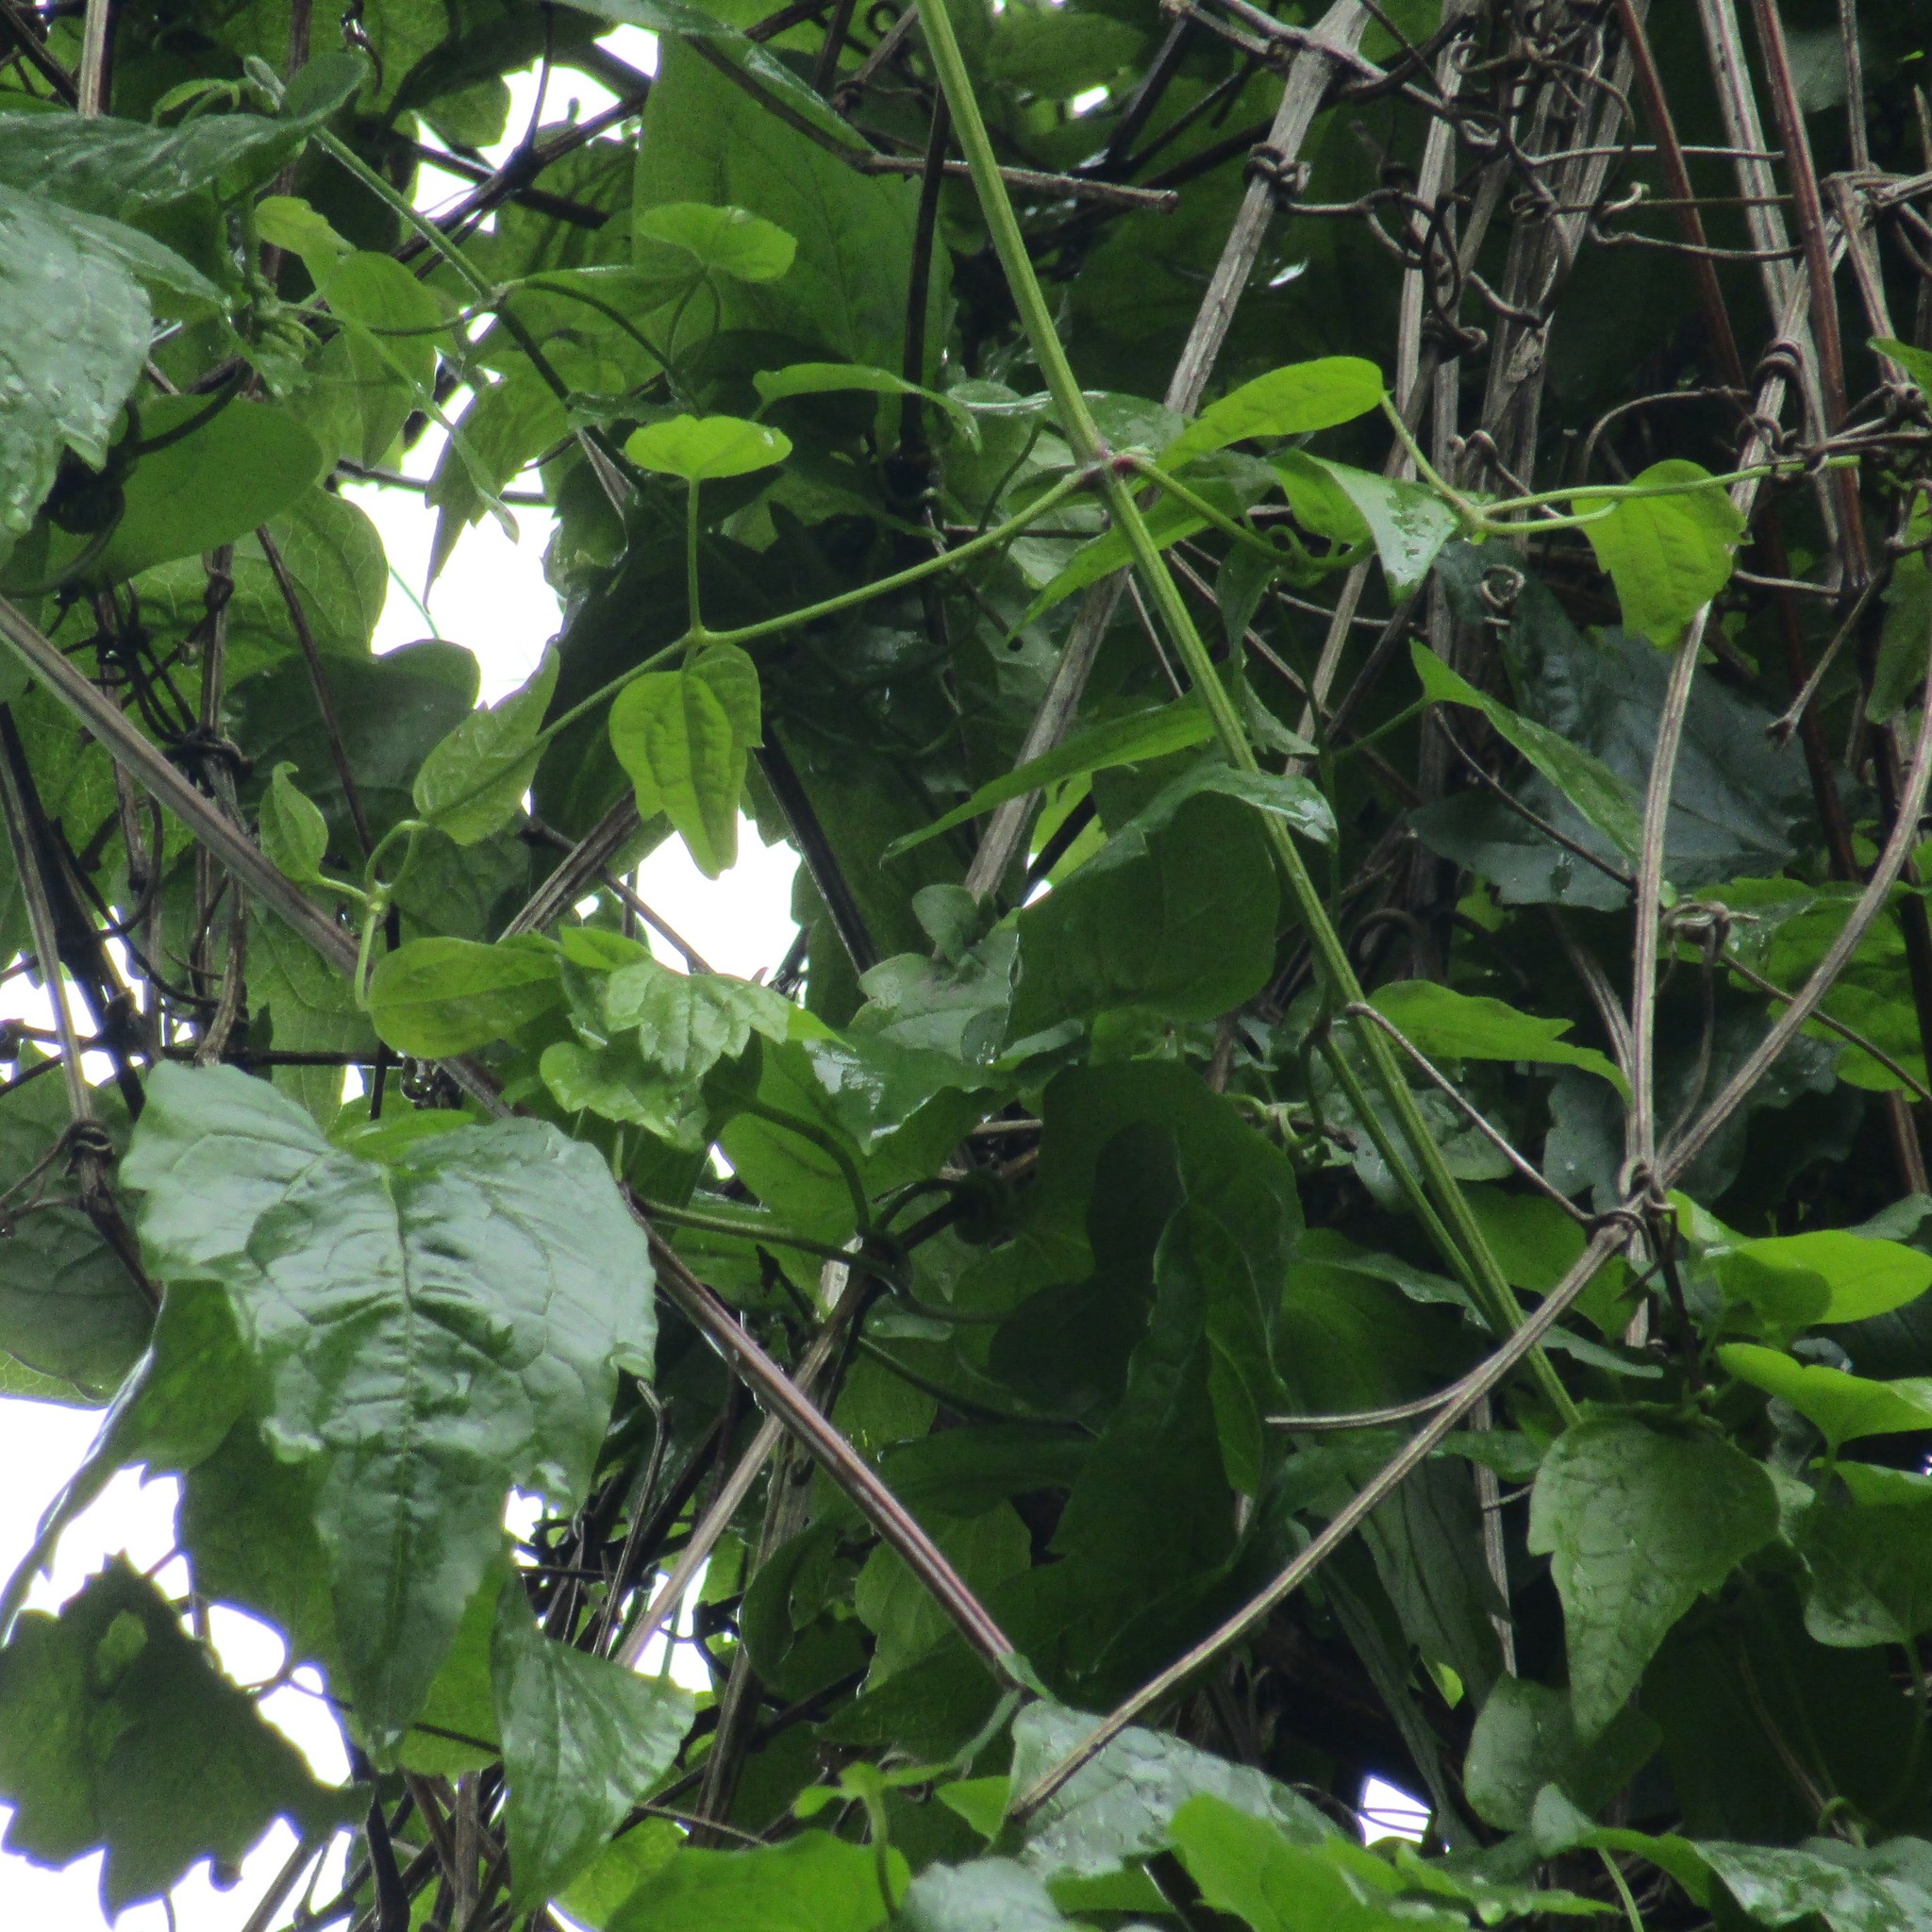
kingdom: Plantae
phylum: Tracheophyta
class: Magnoliopsida
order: Ranunculales
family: Ranunculaceae
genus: Clematis
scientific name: Clematis vitalba
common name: Evergreen clematis
